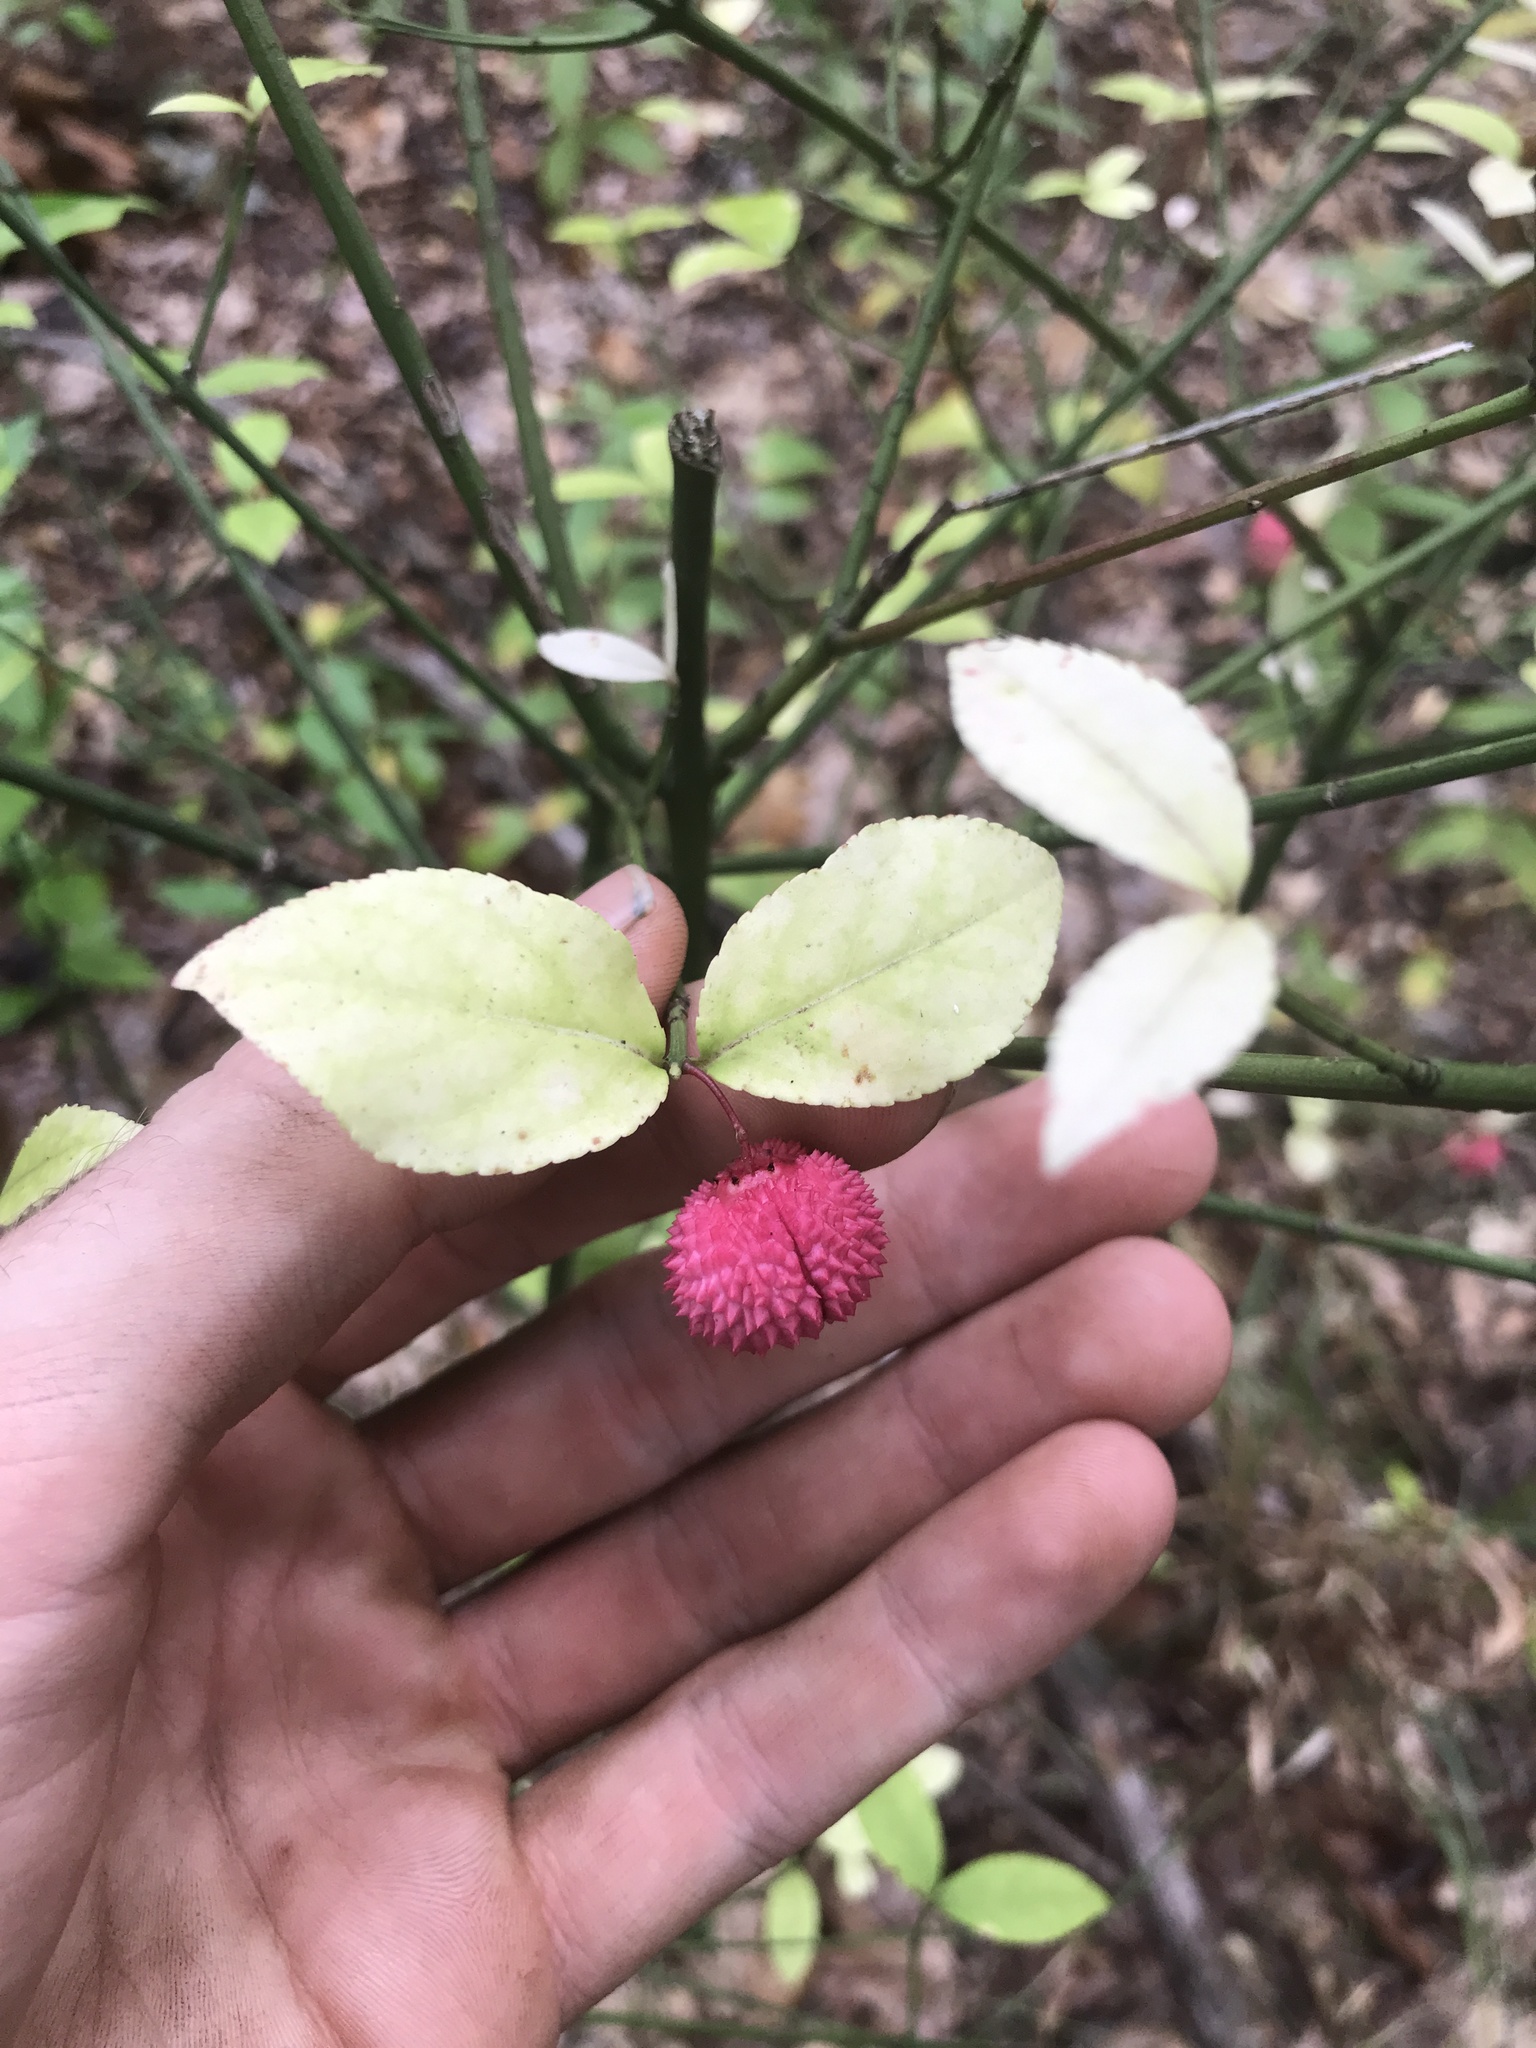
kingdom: Plantae
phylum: Tracheophyta
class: Magnoliopsida
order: Celastrales
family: Celastraceae
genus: Euonymus
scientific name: Euonymus americanus
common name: Bursting-heart
